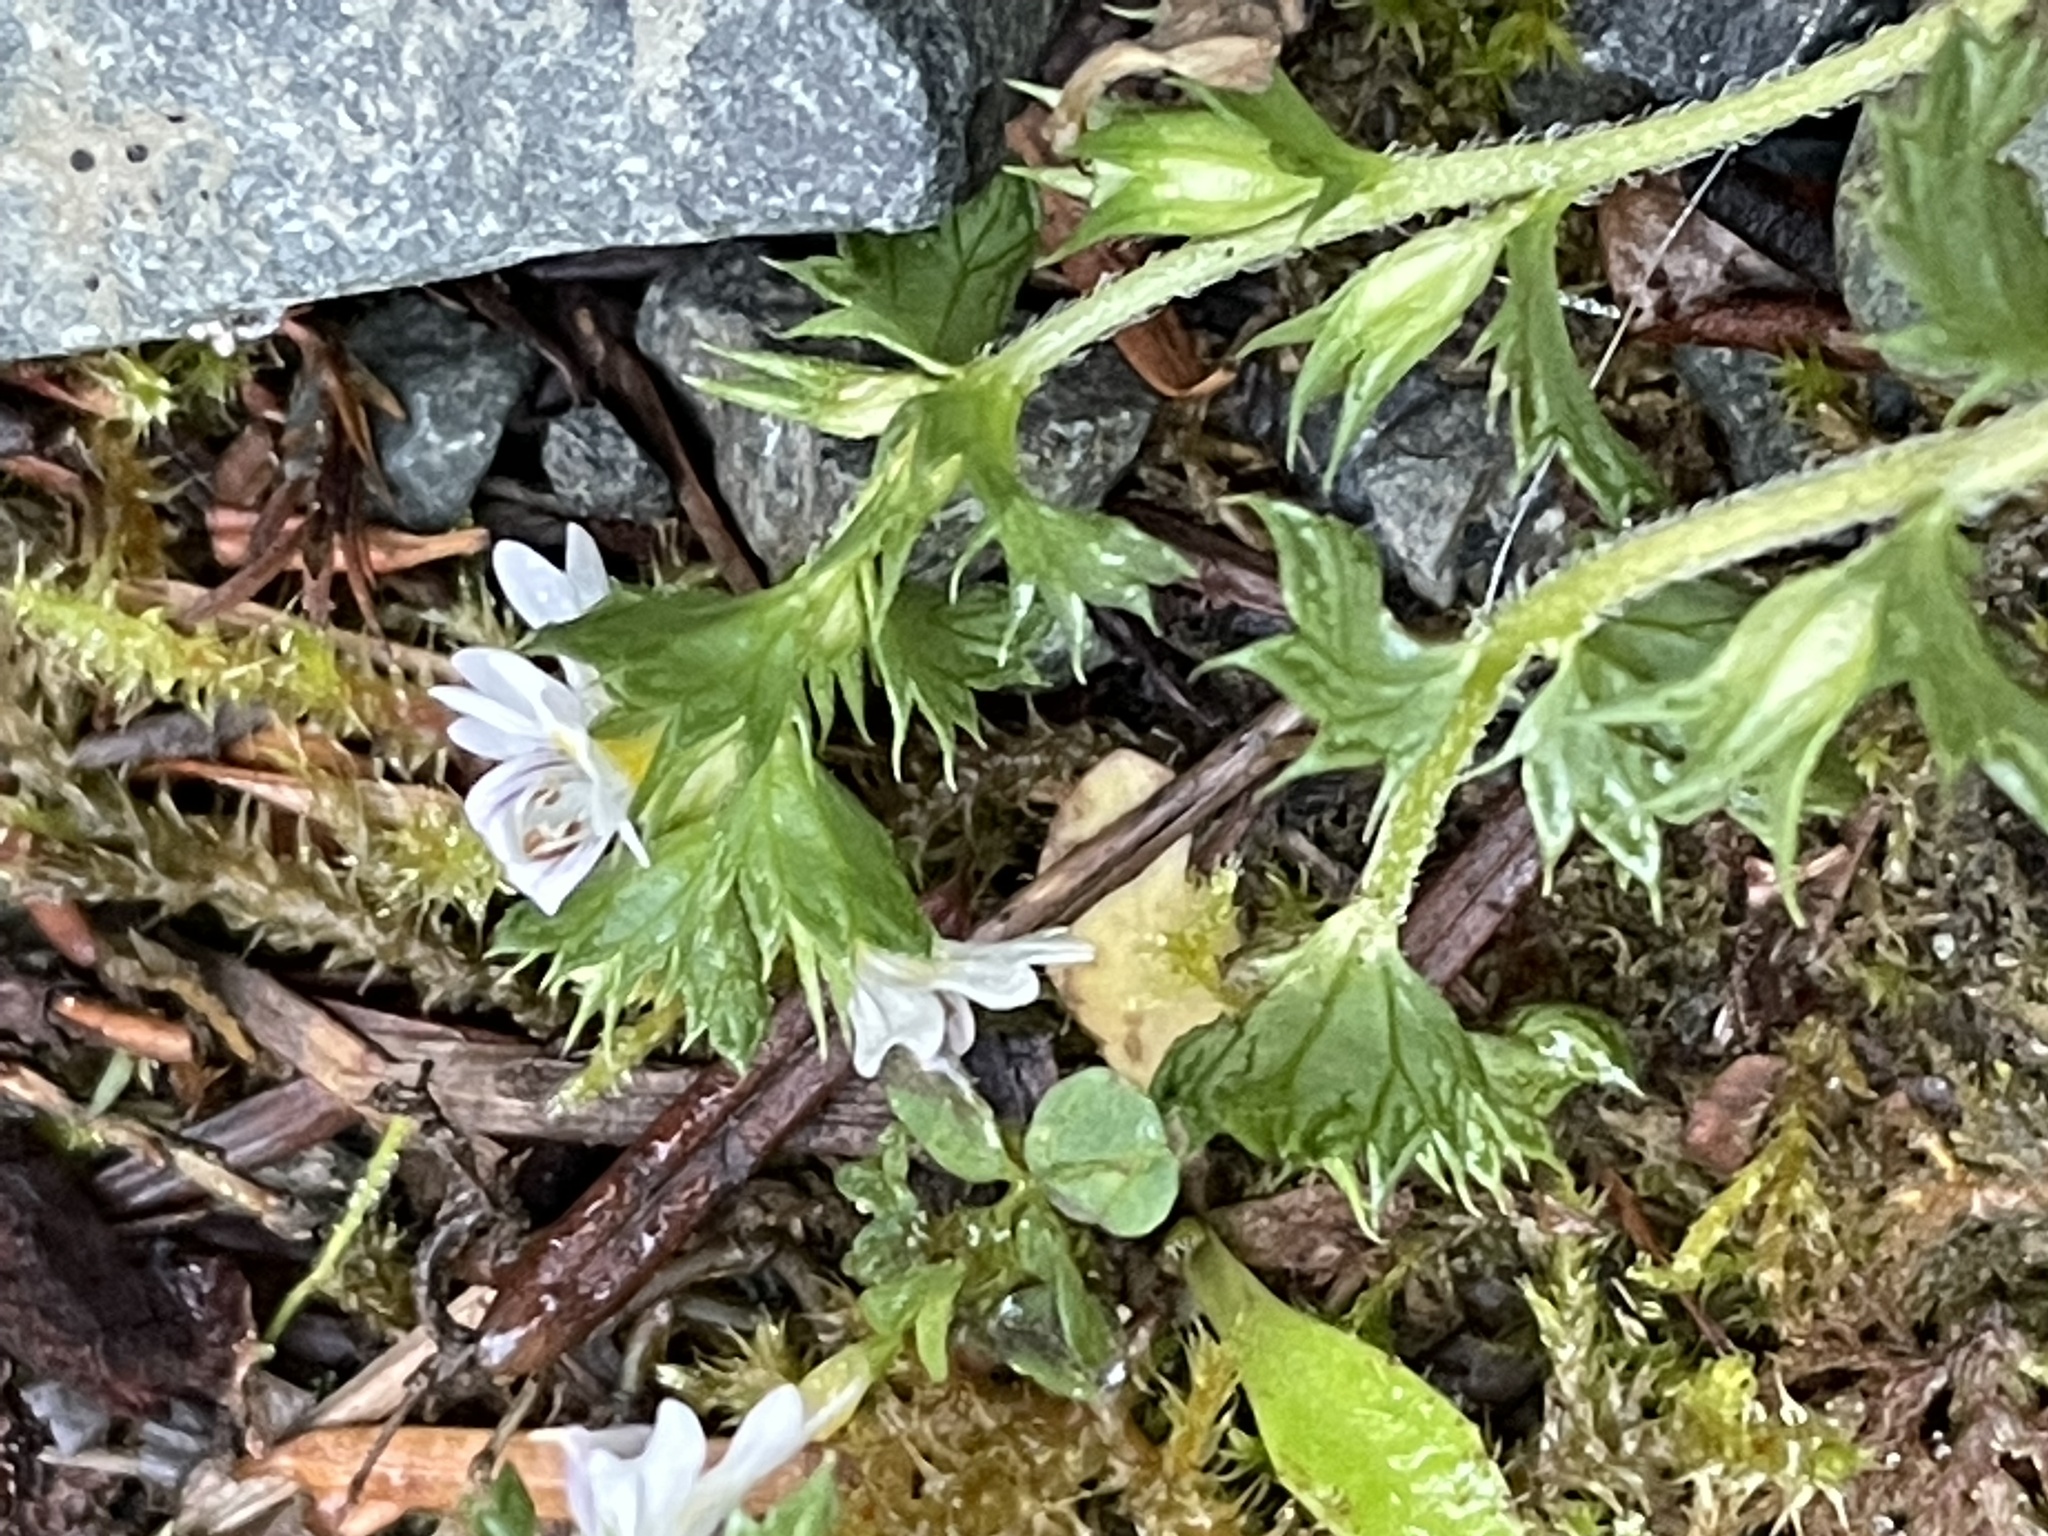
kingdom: Plantae
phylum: Tracheophyta
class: Magnoliopsida
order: Lamiales
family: Orobanchaceae
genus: Euphrasia
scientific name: Euphrasia nemorosa
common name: Common eyebright
